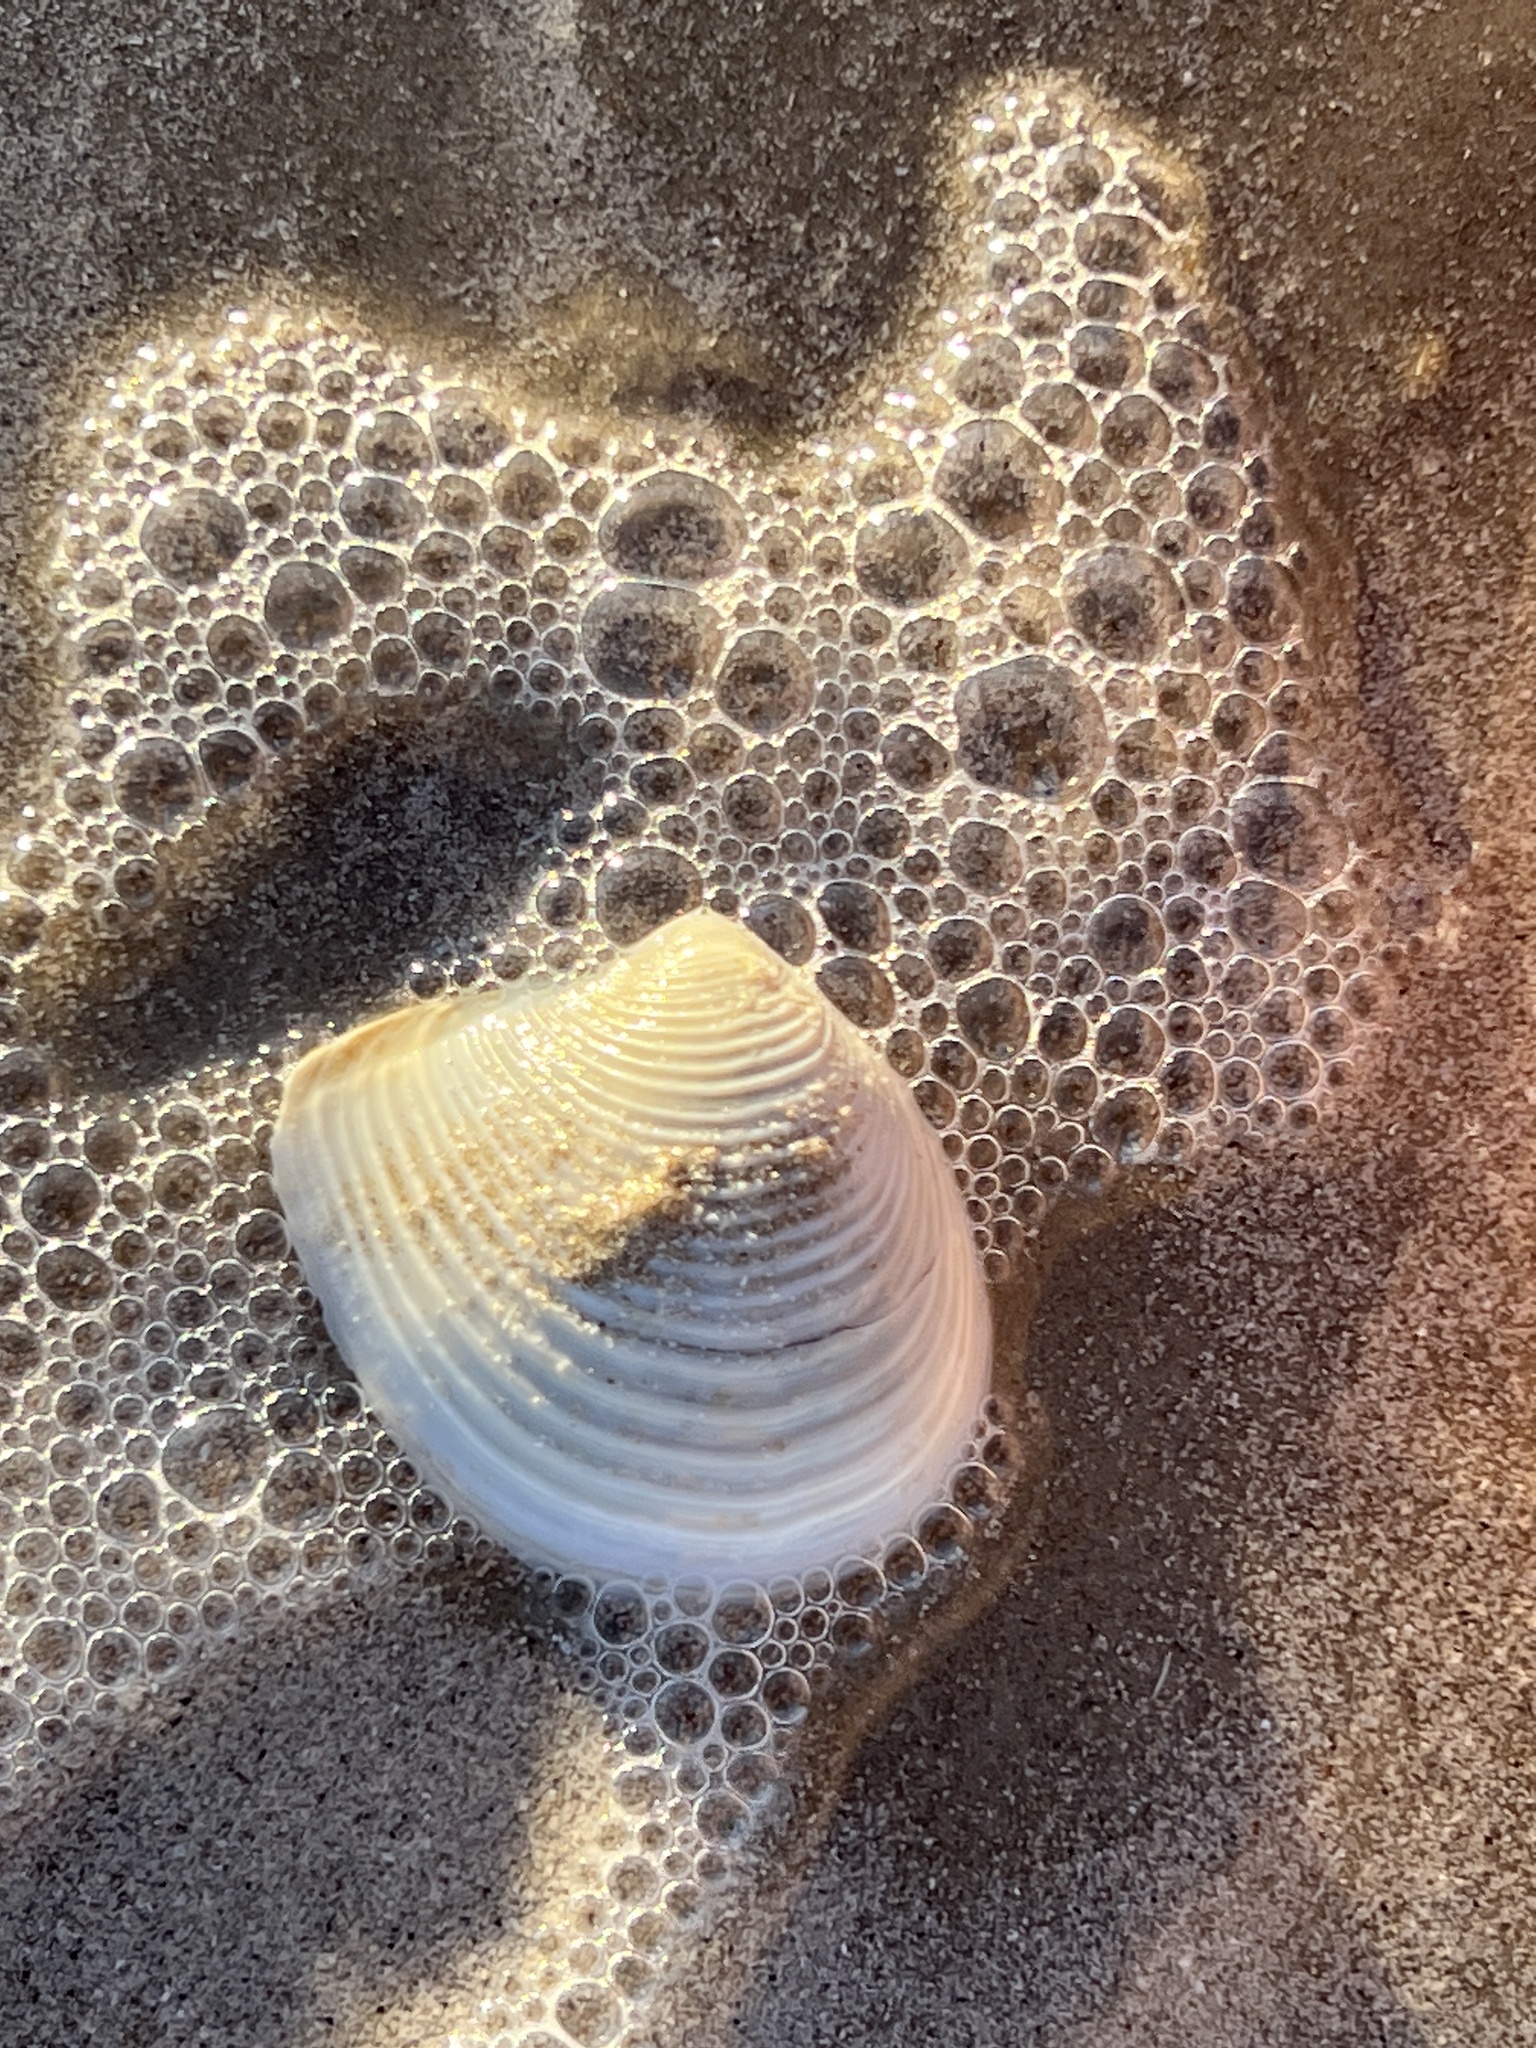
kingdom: Animalia
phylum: Mollusca
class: Bivalvia
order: Venerida
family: Anatinellidae
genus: Raeta
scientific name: Raeta plicatella
